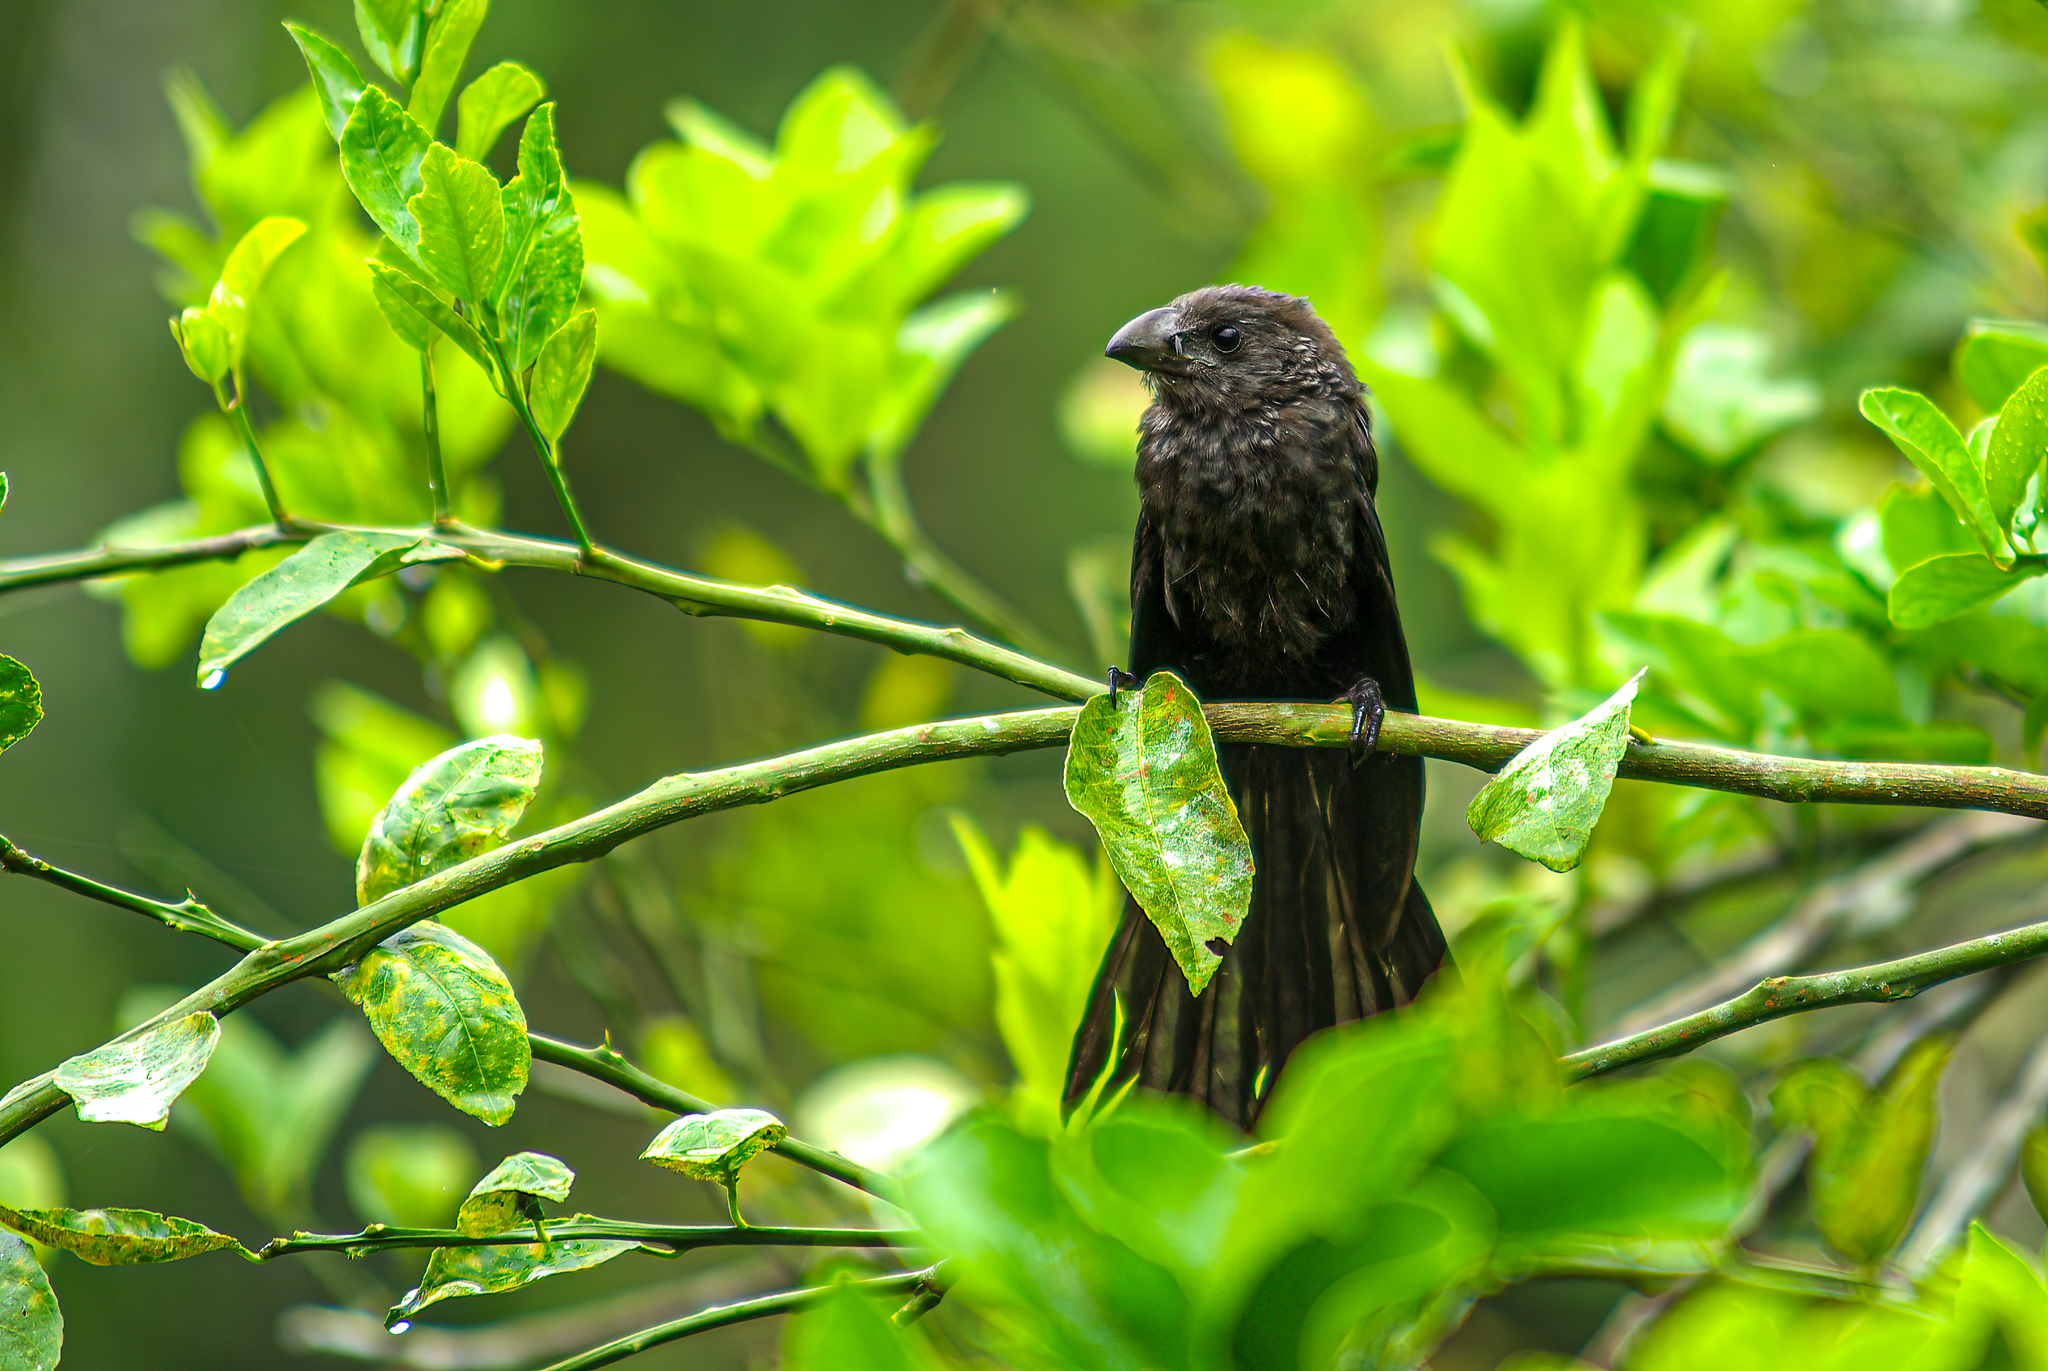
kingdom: Animalia
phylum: Chordata
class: Aves
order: Cuculiformes
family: Cuculidae
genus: Crotophaga
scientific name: Crotophaga ani
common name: Smooth-billed ani
